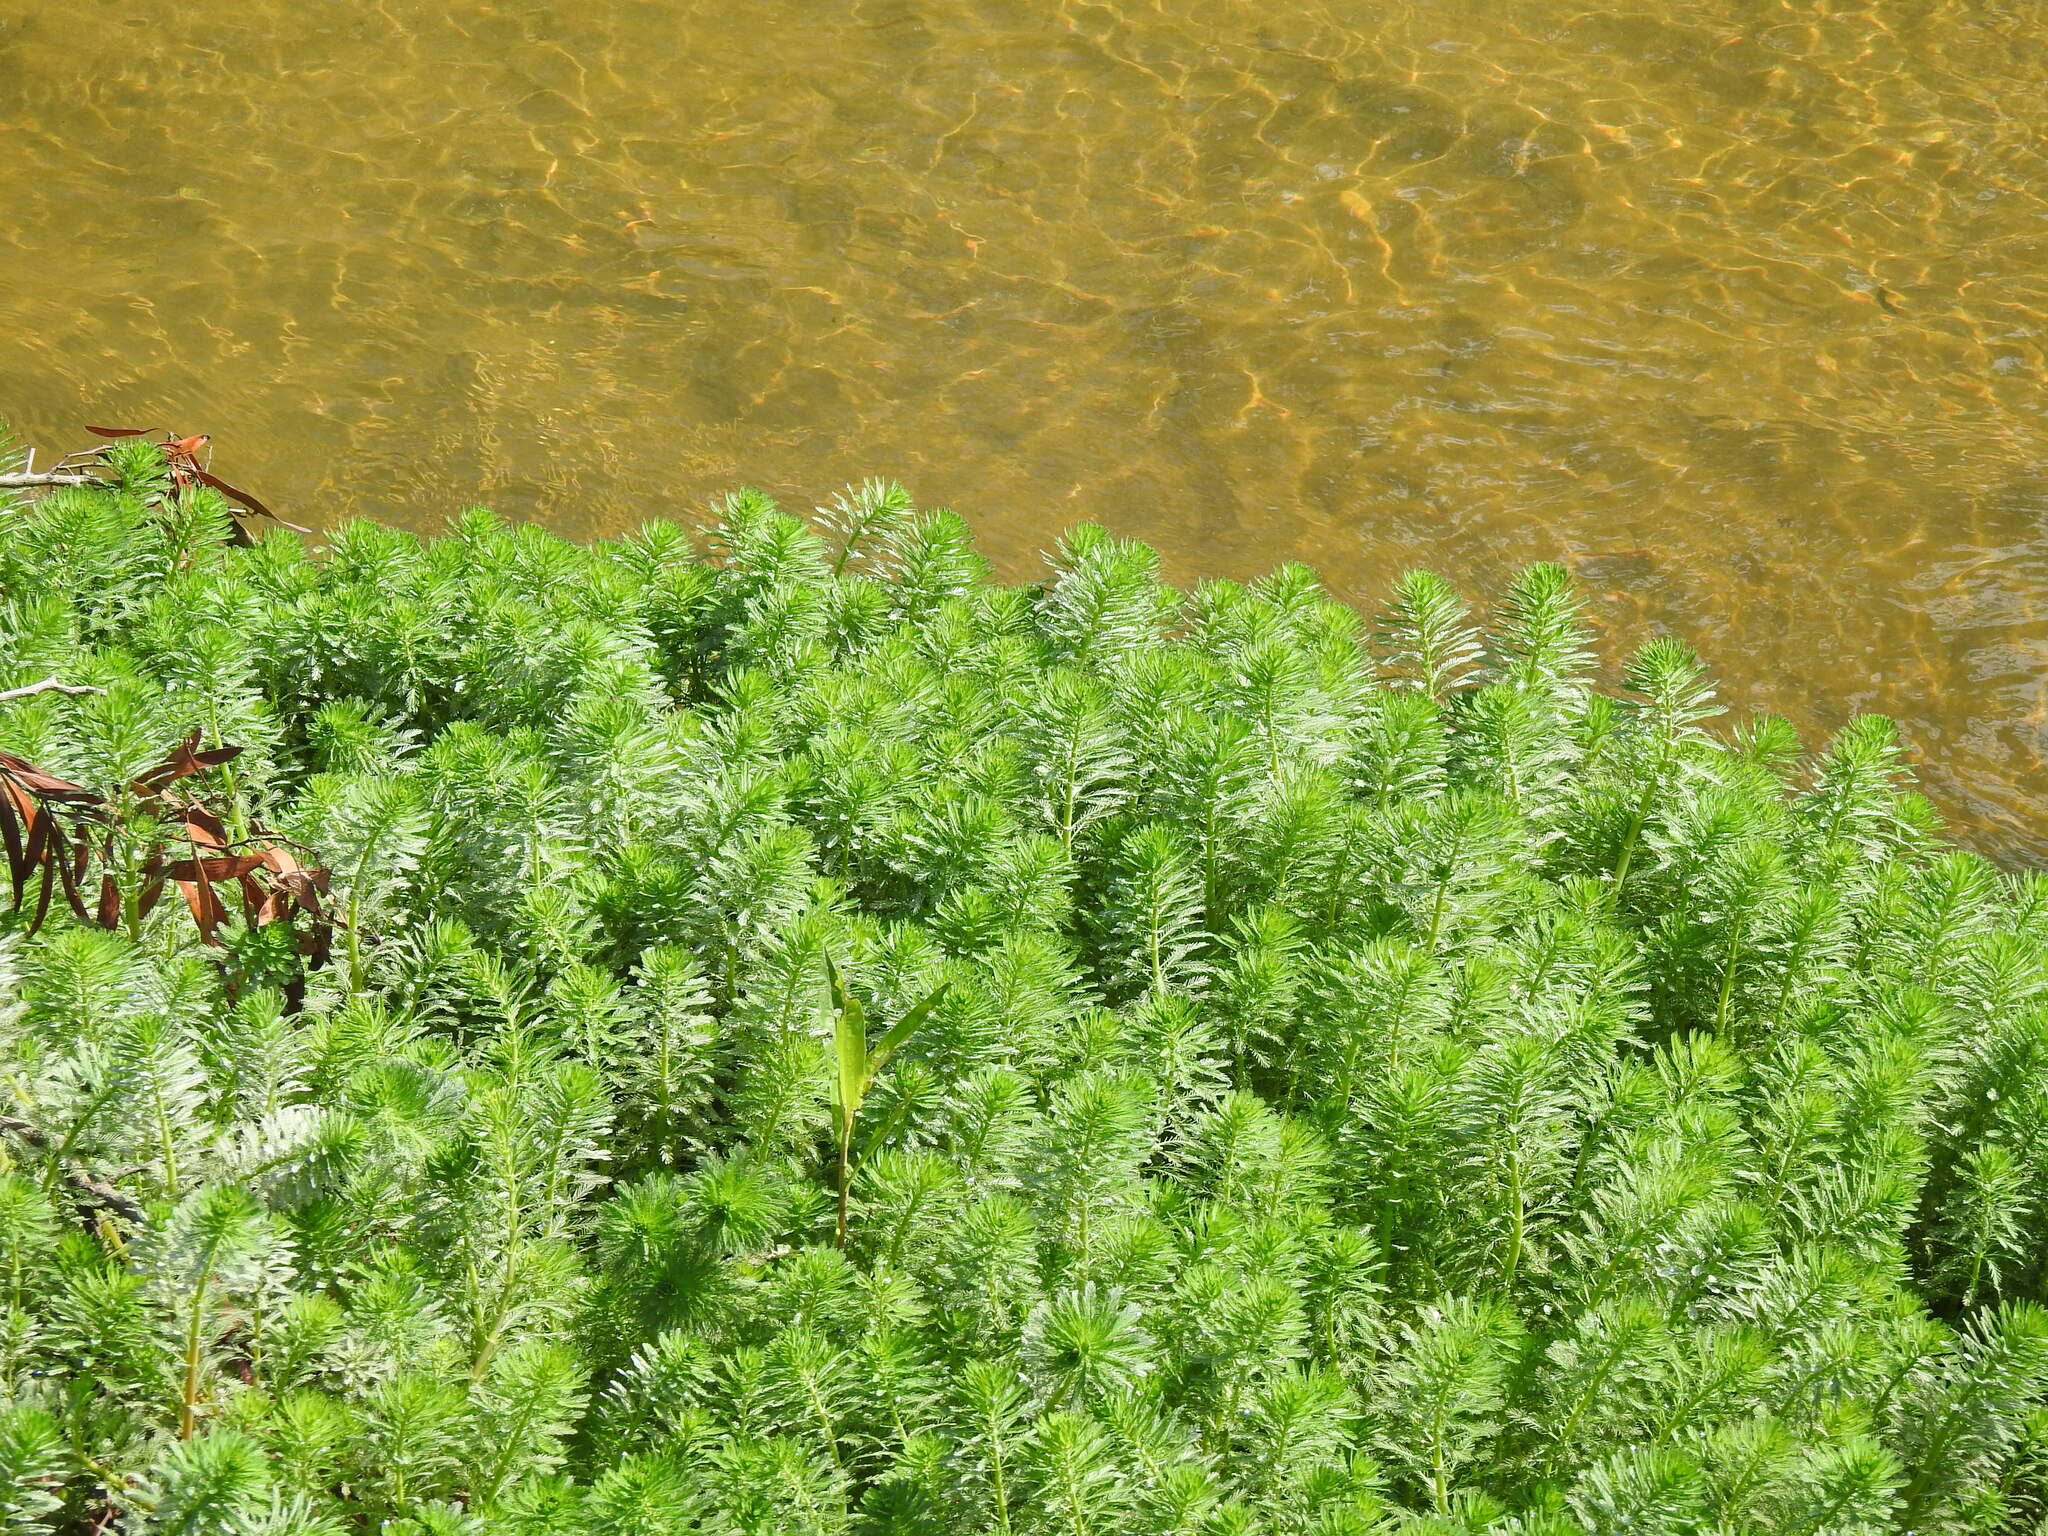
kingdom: Plantae
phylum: Tracheophyta
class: Magnoliopsida
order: Saxifragales
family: Haloragaceae
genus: Myriophyllum
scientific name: Myriophyllum aquaticum
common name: Parrot's feather
